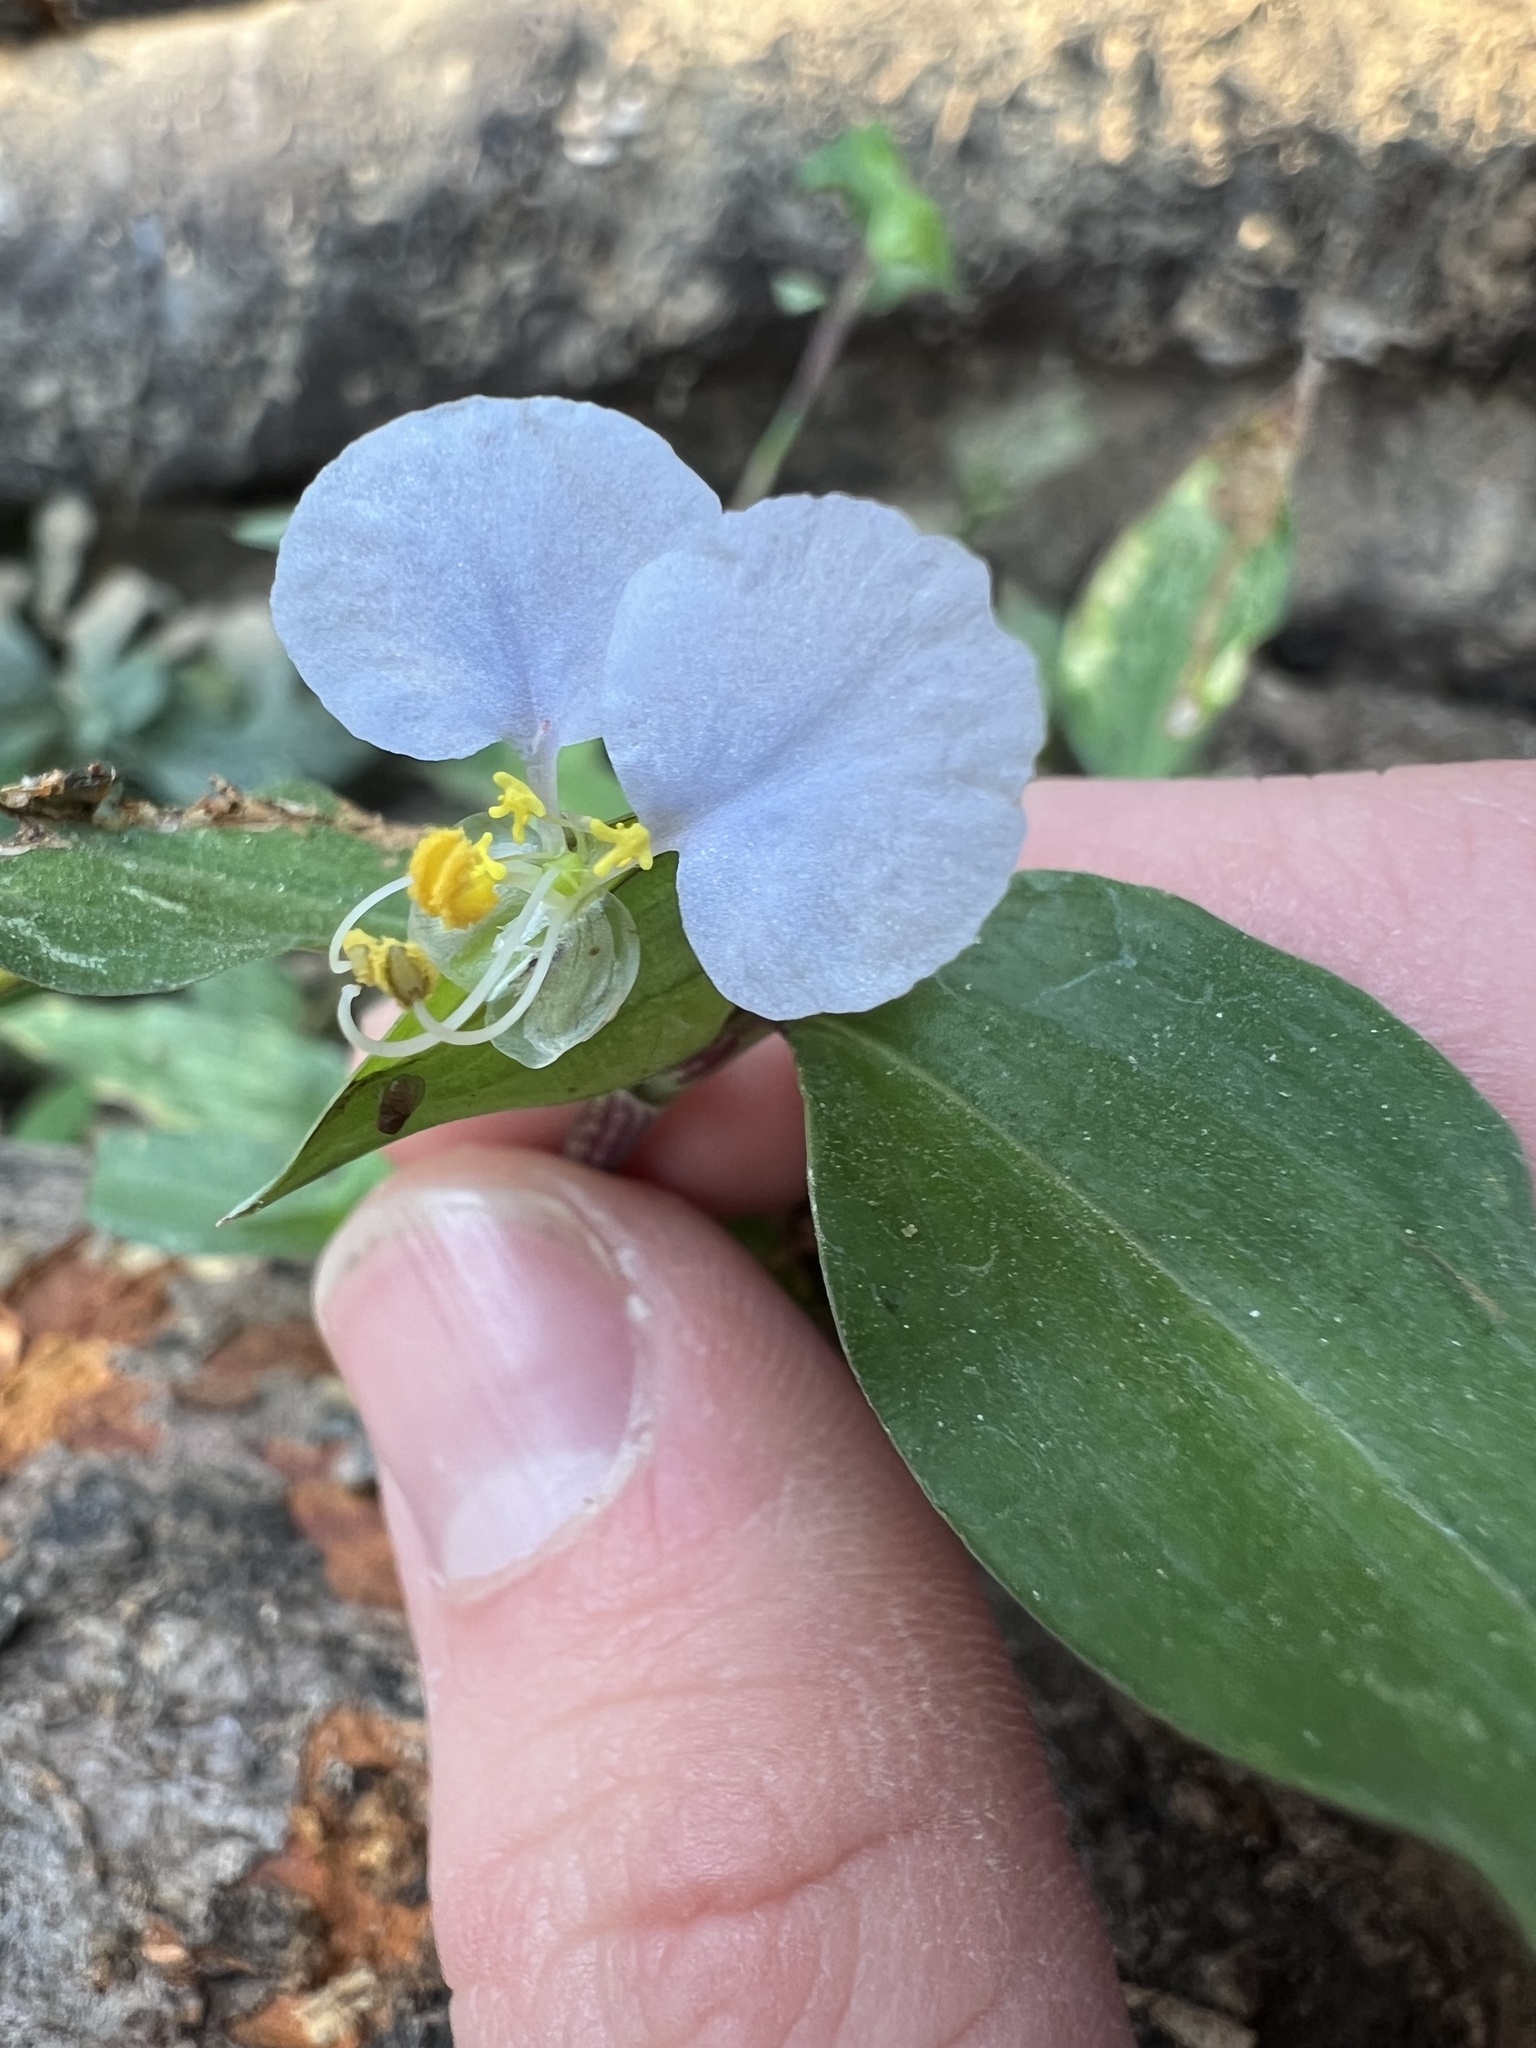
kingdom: Plantae
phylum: Tracheophyta
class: Liliopsida
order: Commelinales
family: Commelinaceae
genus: Commelina
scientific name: Commelina erecta
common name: Blousel blommetjie
